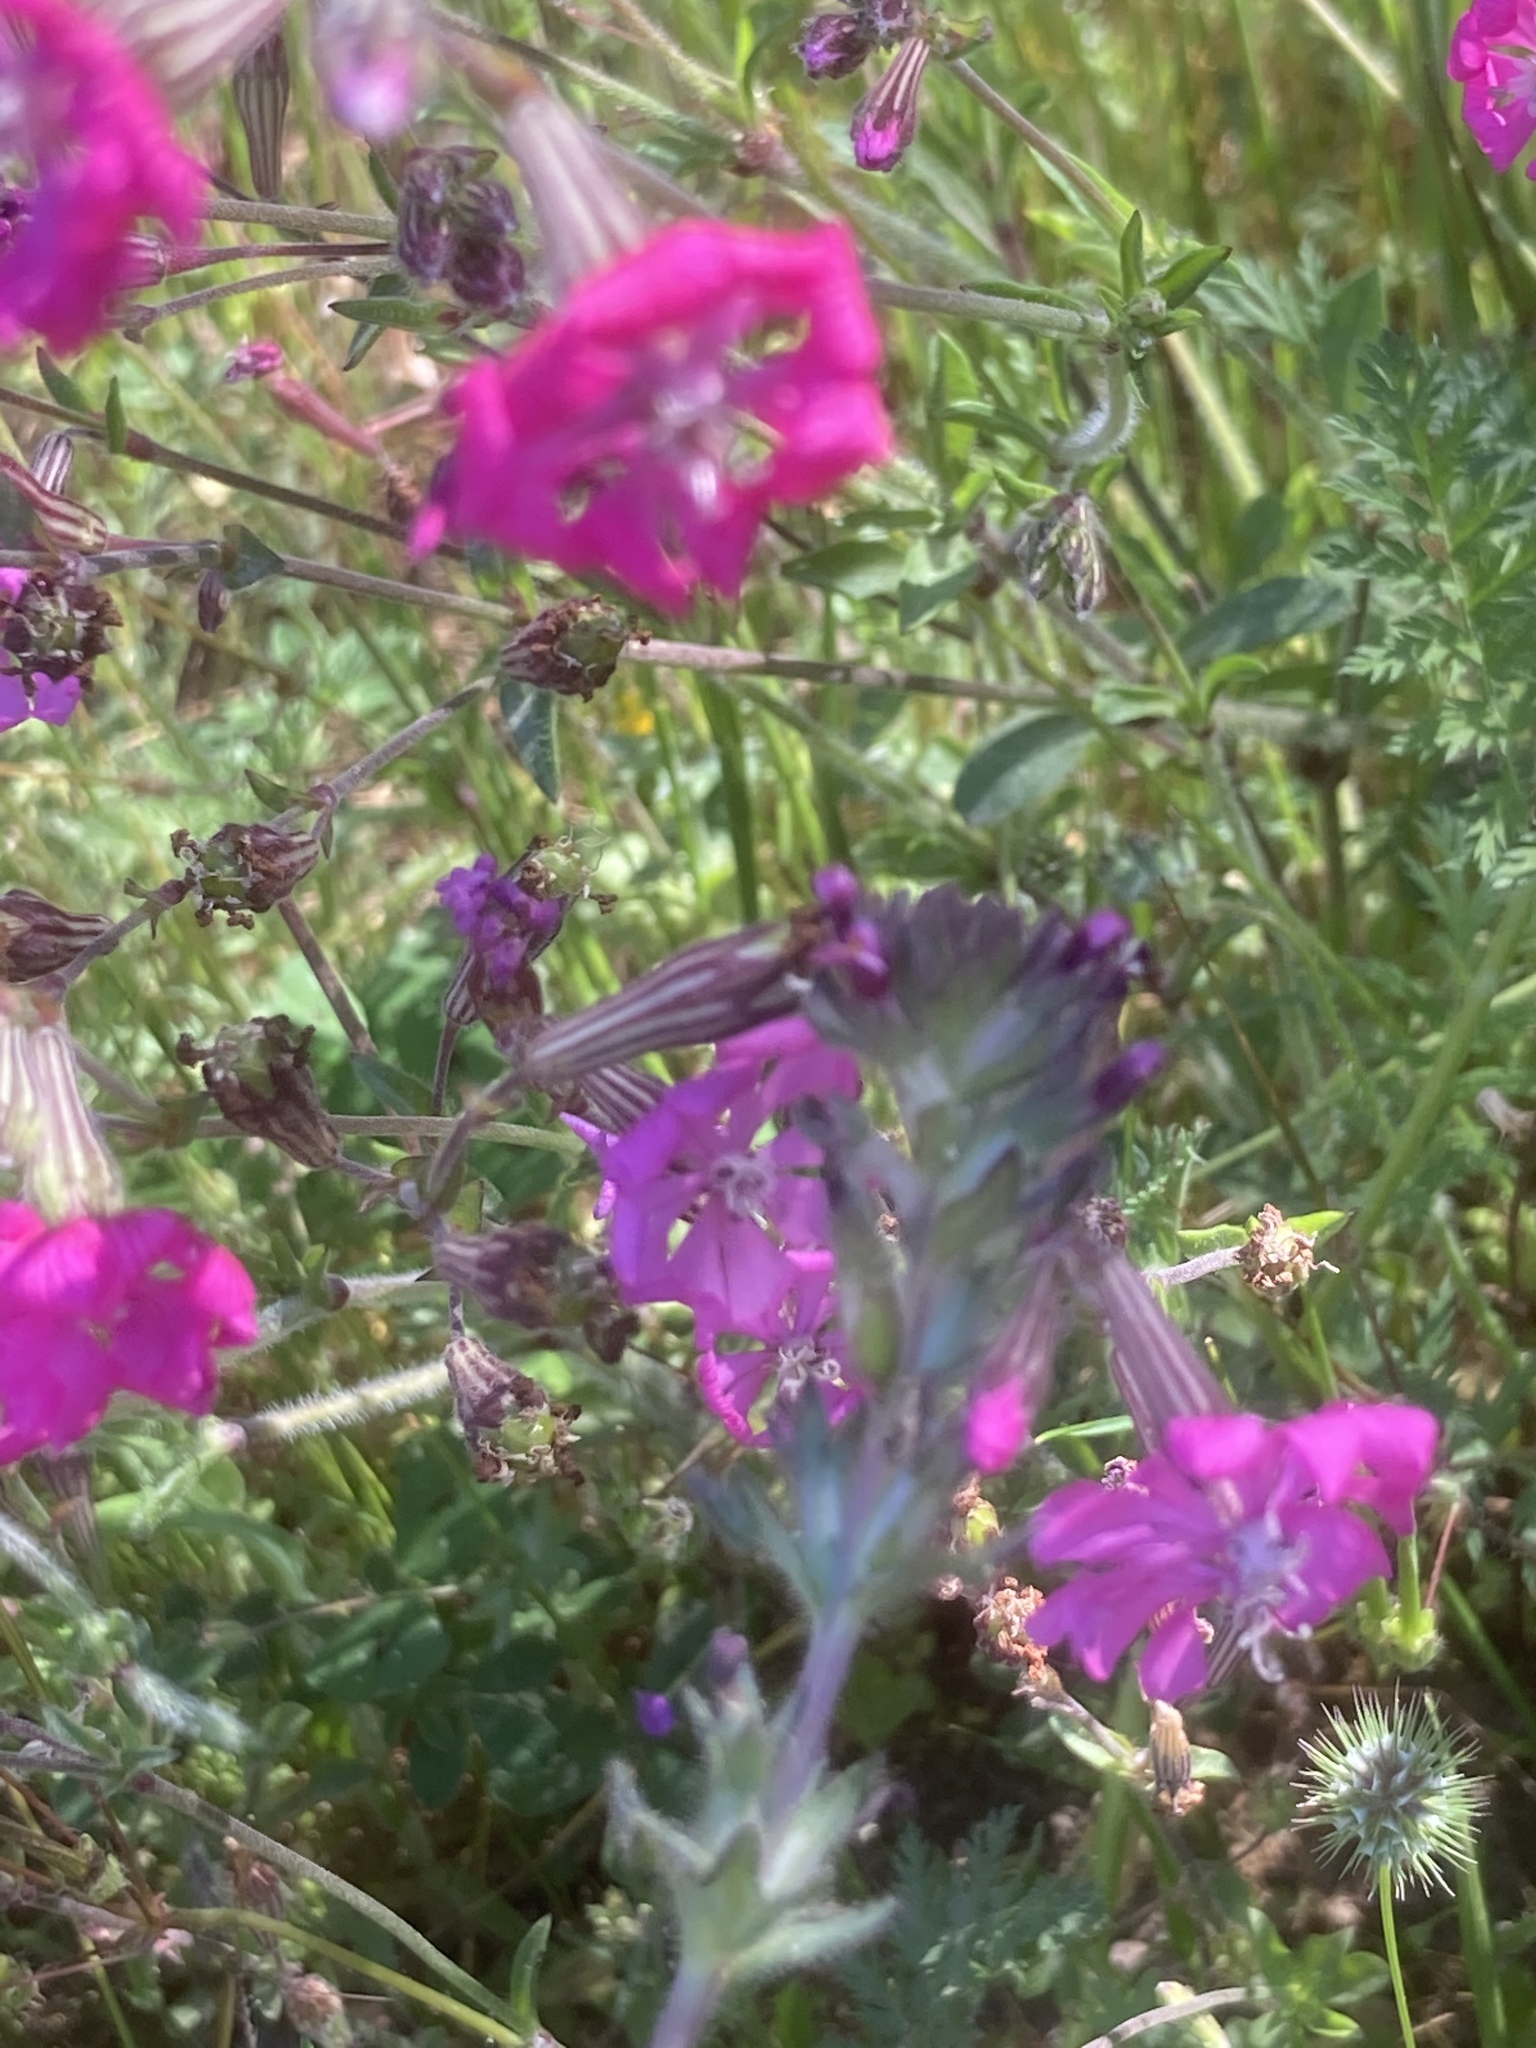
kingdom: Plantae
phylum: Tracheophyta
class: Magnoliopsida
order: Caryophyllales
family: Caryophyllaceae
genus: Silene
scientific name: Silene colorata
